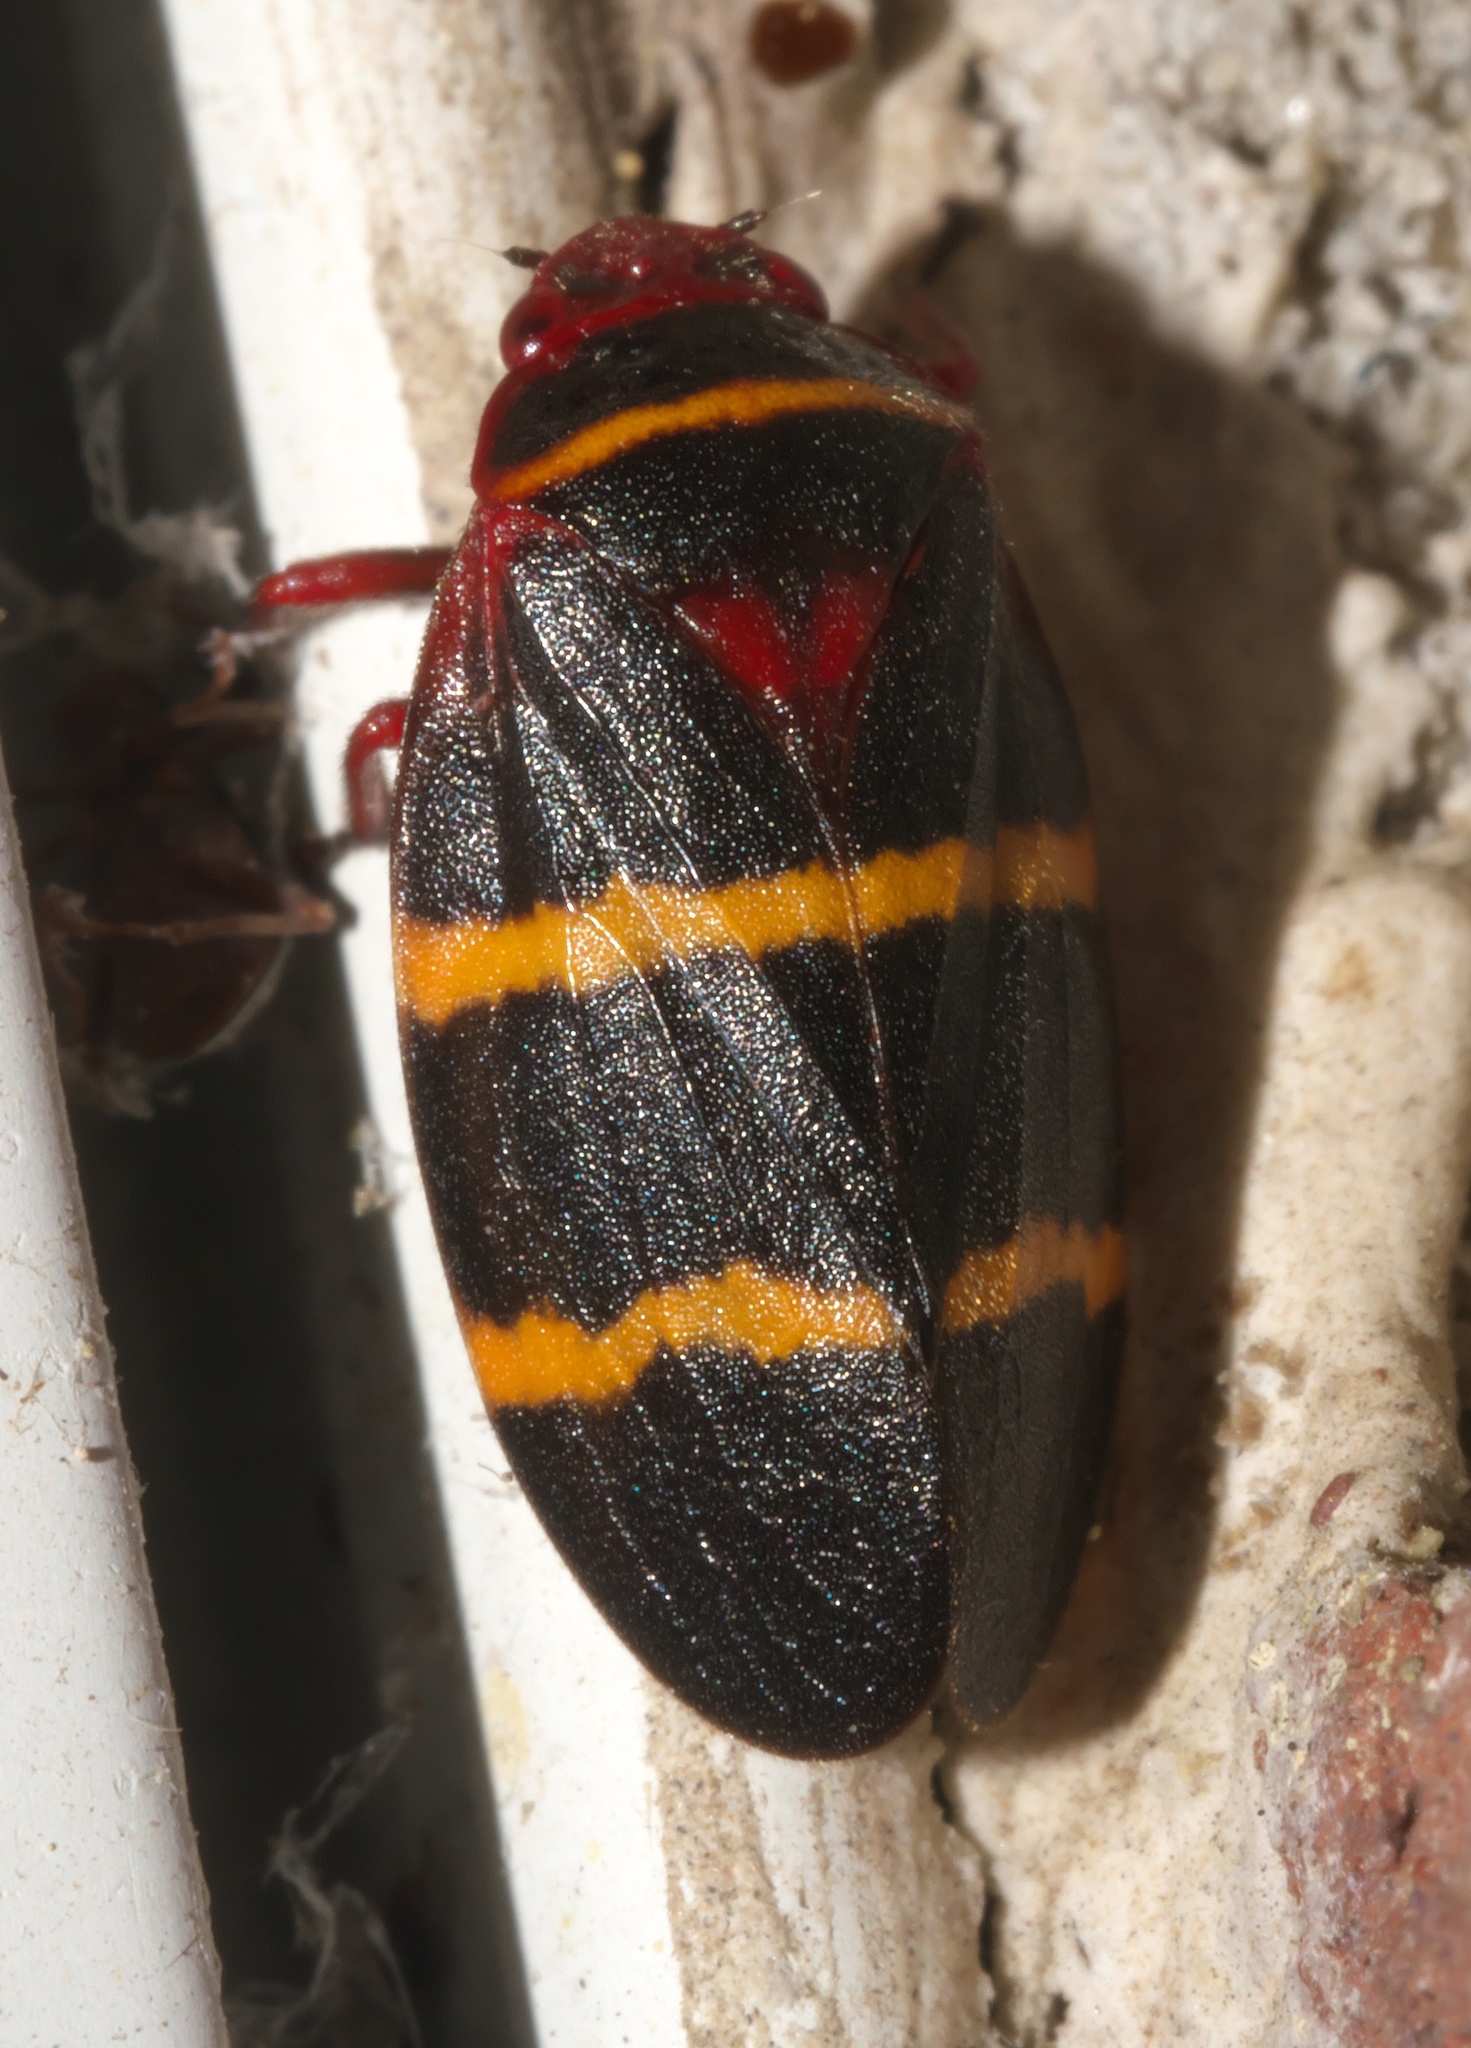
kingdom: Animalia
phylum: Arthropoda
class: Insecta
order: Hemiptera
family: Cercopidae
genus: Prosapia
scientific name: Prosapia bicincta
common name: Twolined spittlebug
